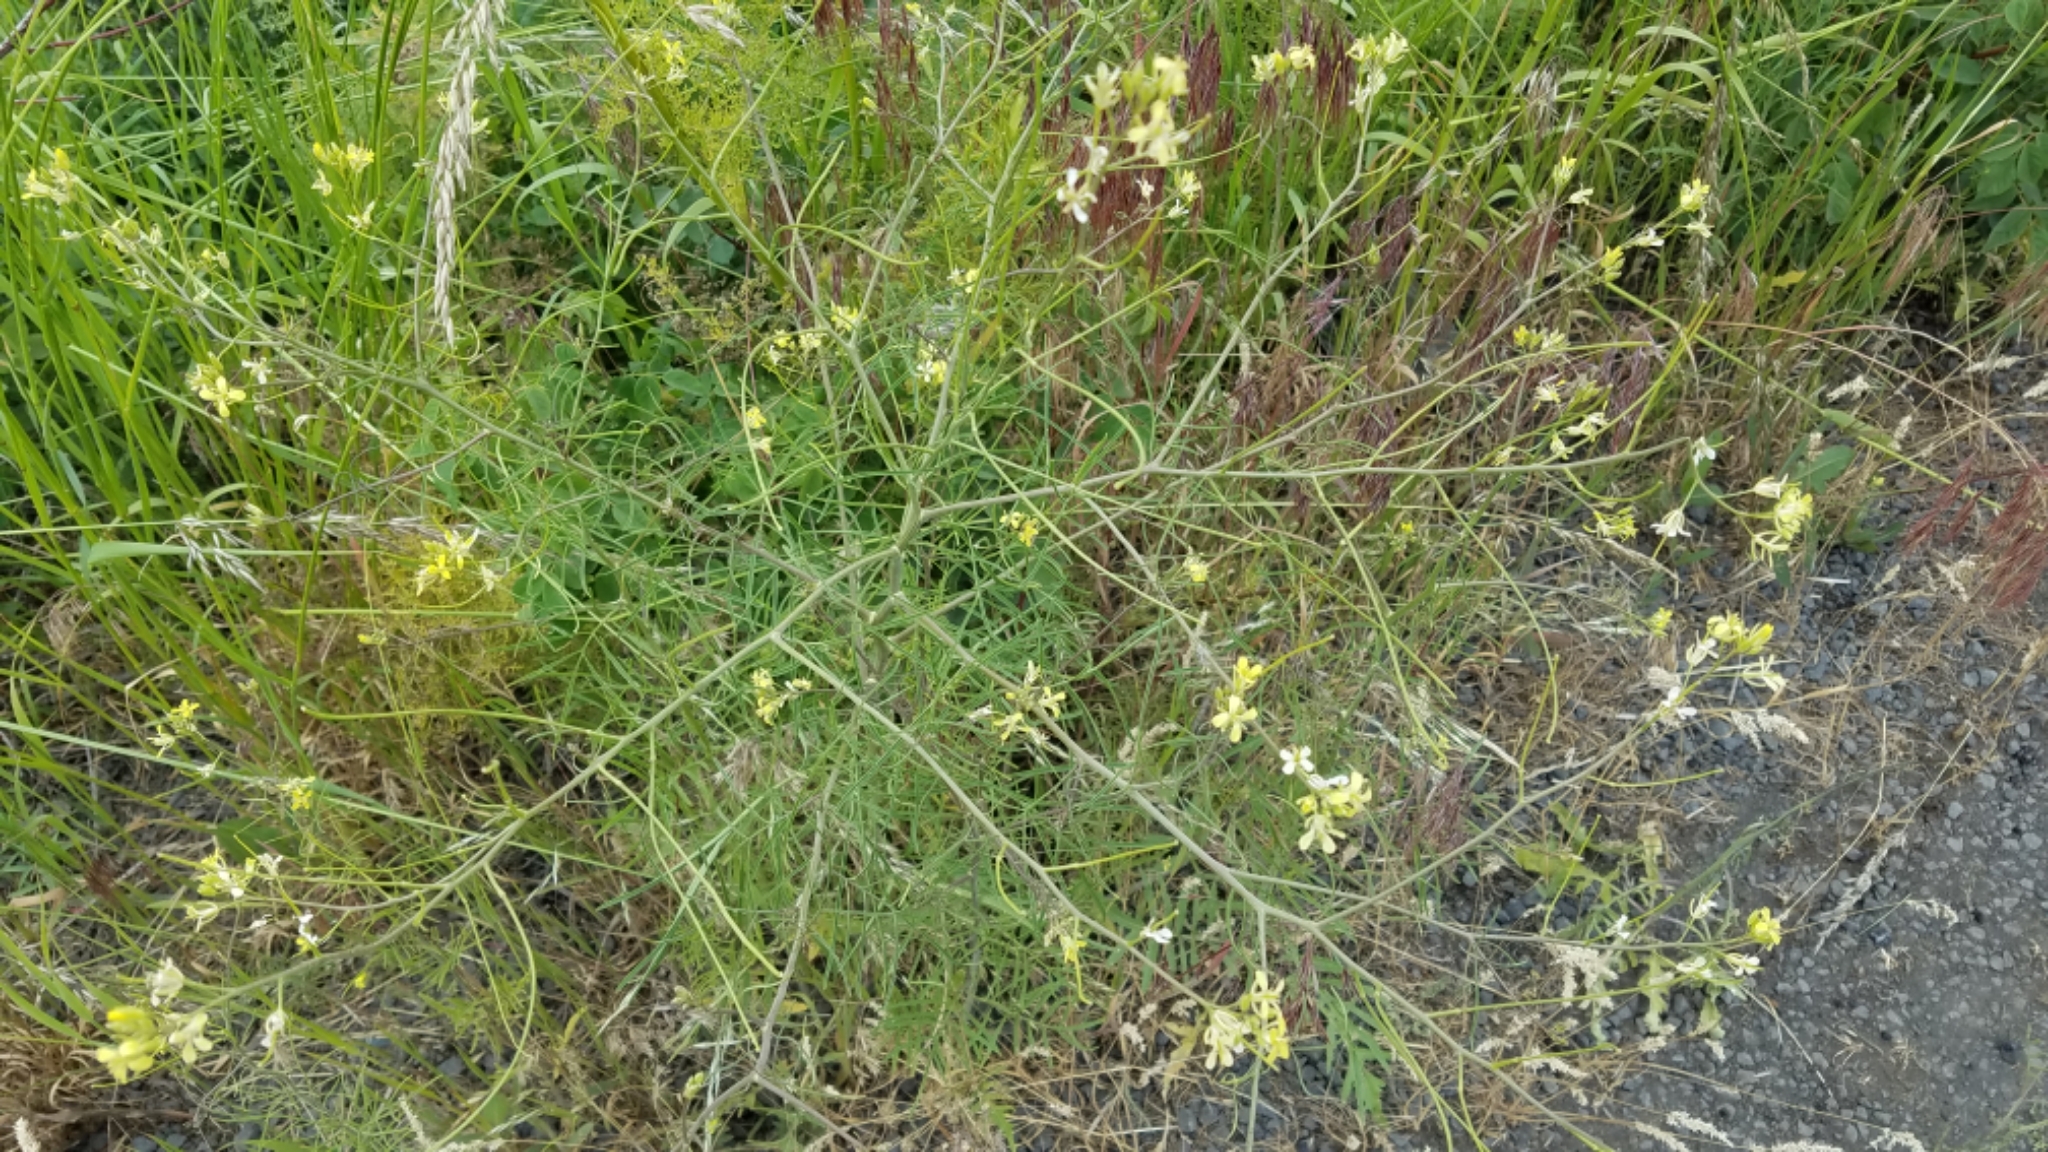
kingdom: Plantae
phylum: Tracheophyta
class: Magnoliopsida
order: Brassicales
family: Brassicaceae
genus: Sisymbrium
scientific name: Sisymbrium altissimum
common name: Tall rocket
